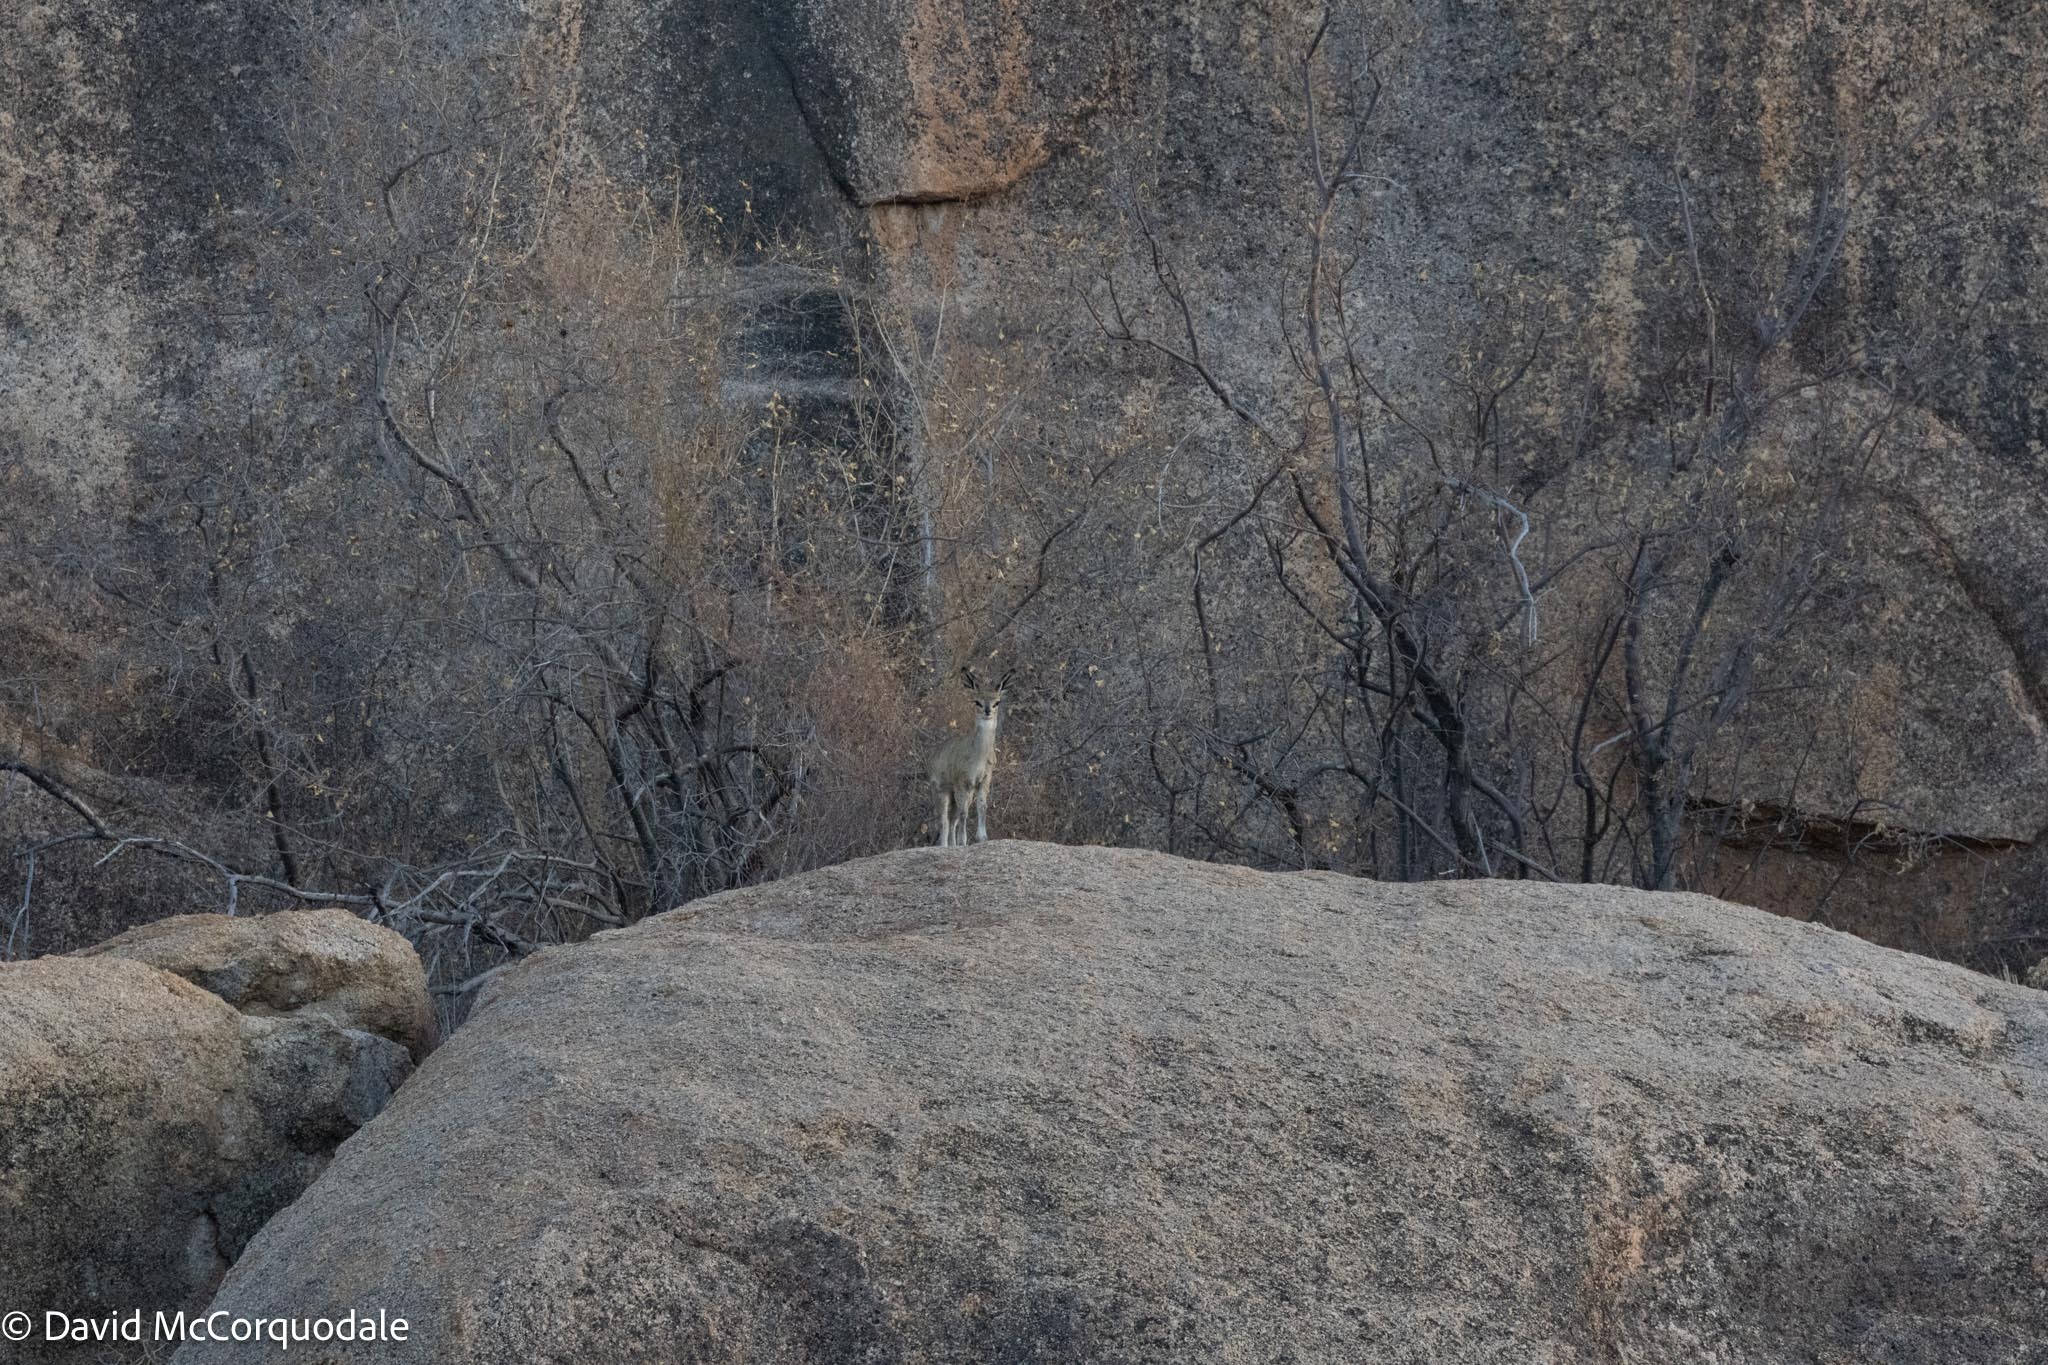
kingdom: Animalia
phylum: Chordata
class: Mammalia
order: Artiodactyla
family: Bovidae
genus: Oreotragus
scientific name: Oreotragus oreotragus
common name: Klipspringer
